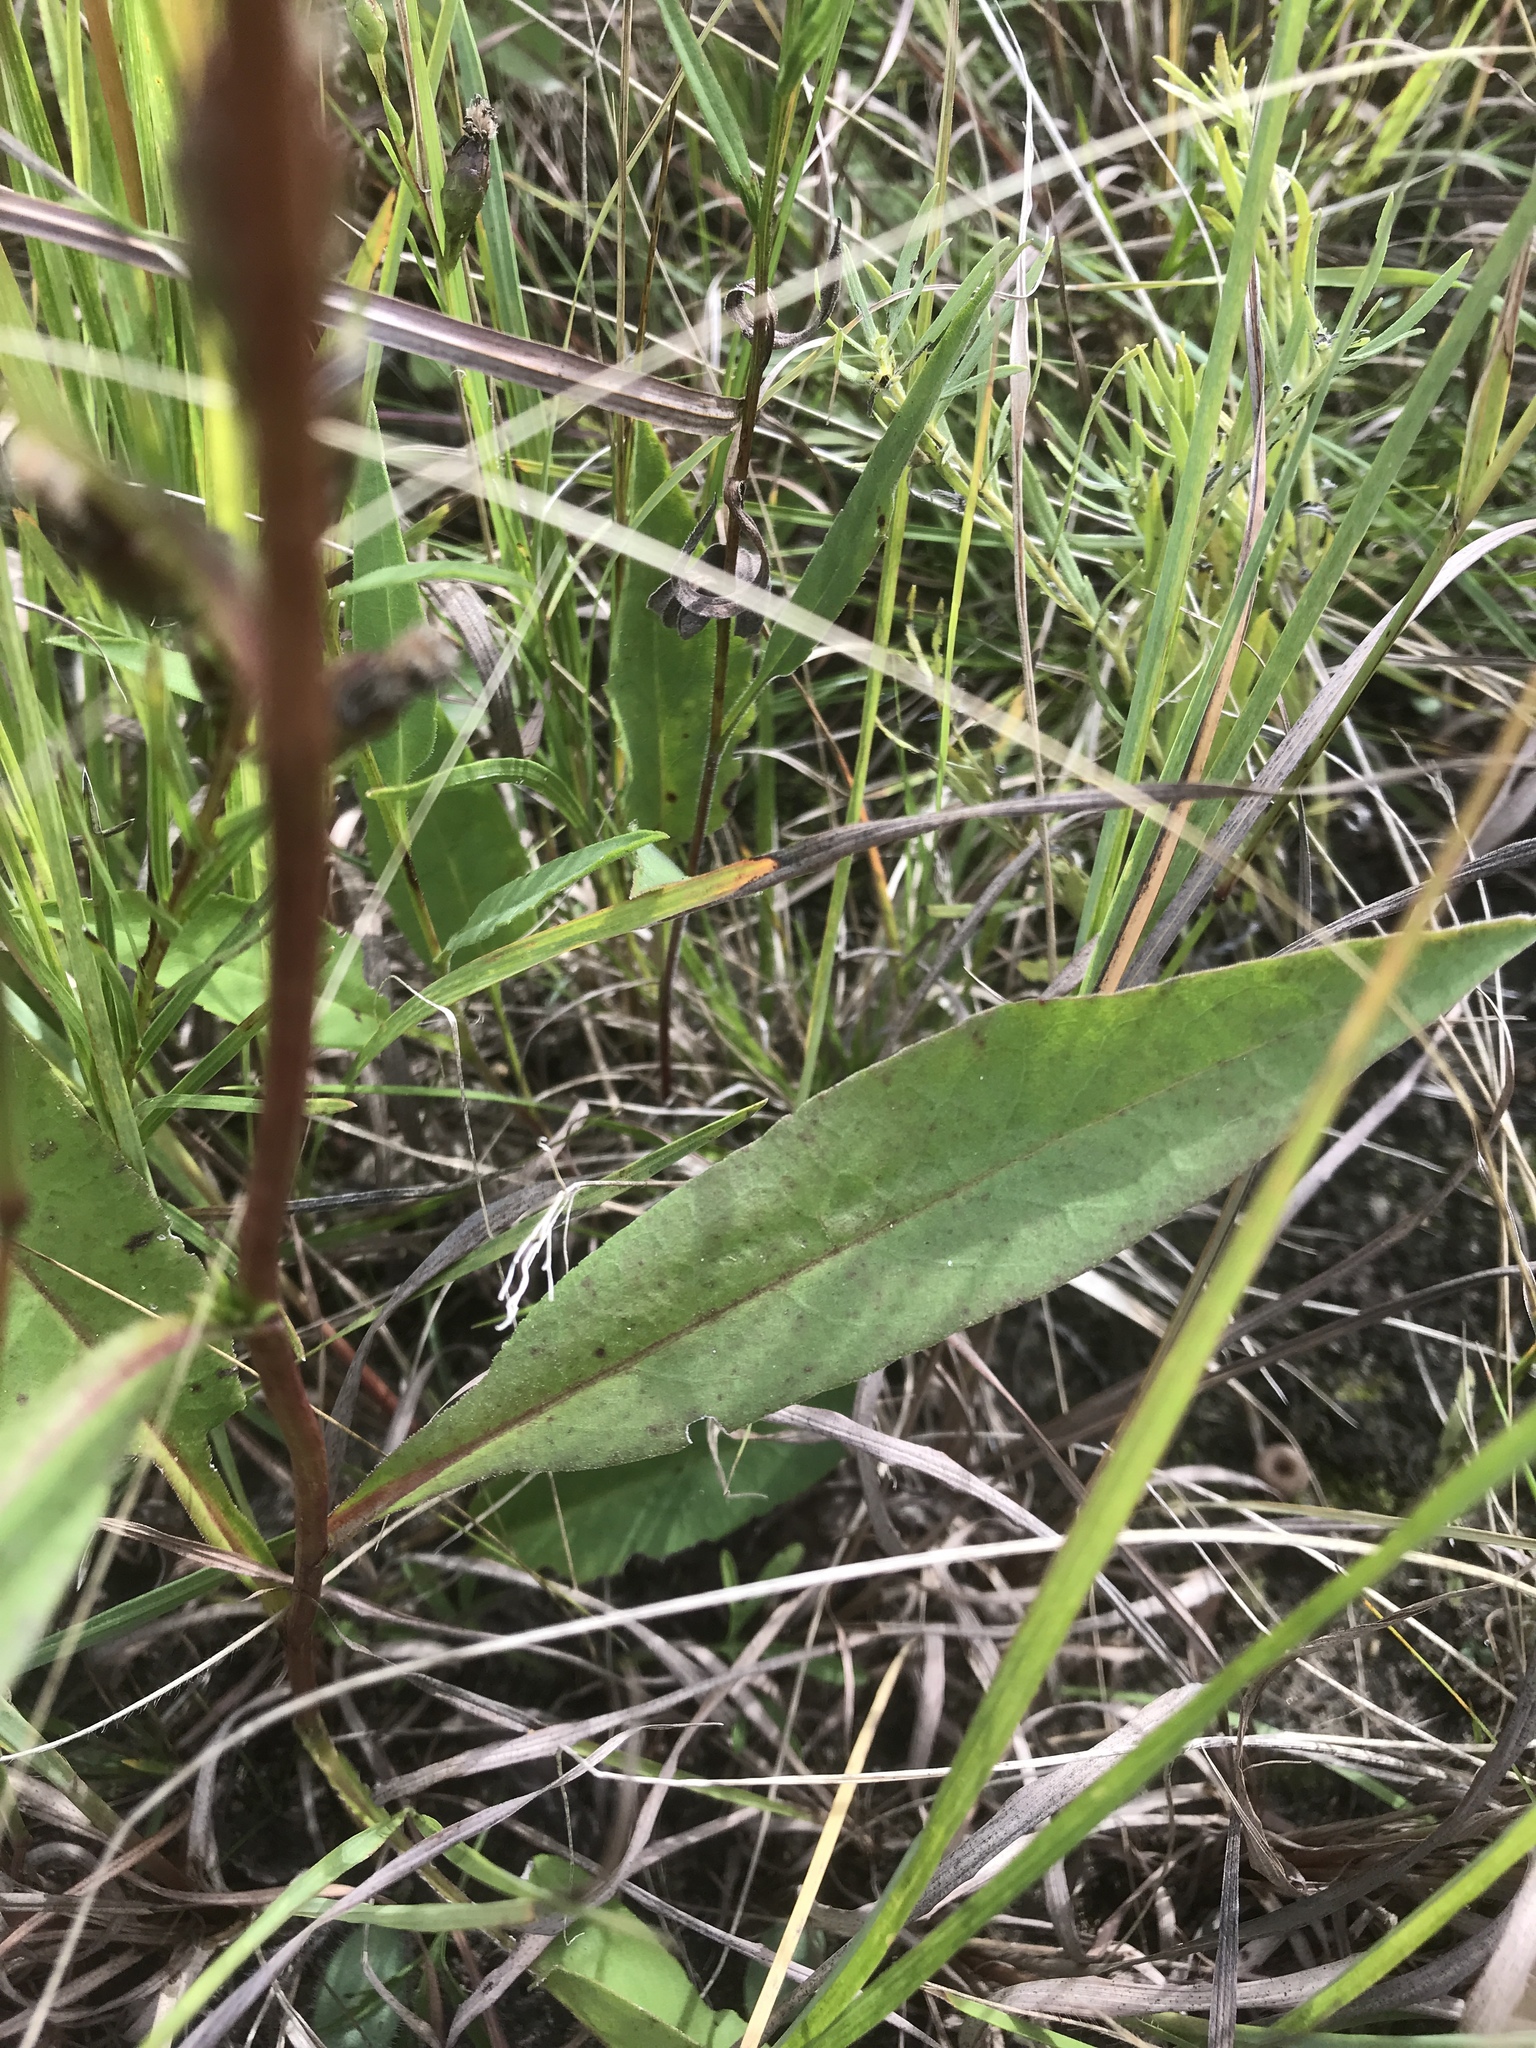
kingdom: Plantae
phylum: Tracheophyta
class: Magnoliopsida
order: Asterales
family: Asteraceae
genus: Symphyotrichum
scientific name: Symphyotrichum oolentangiense
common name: Azure aster
